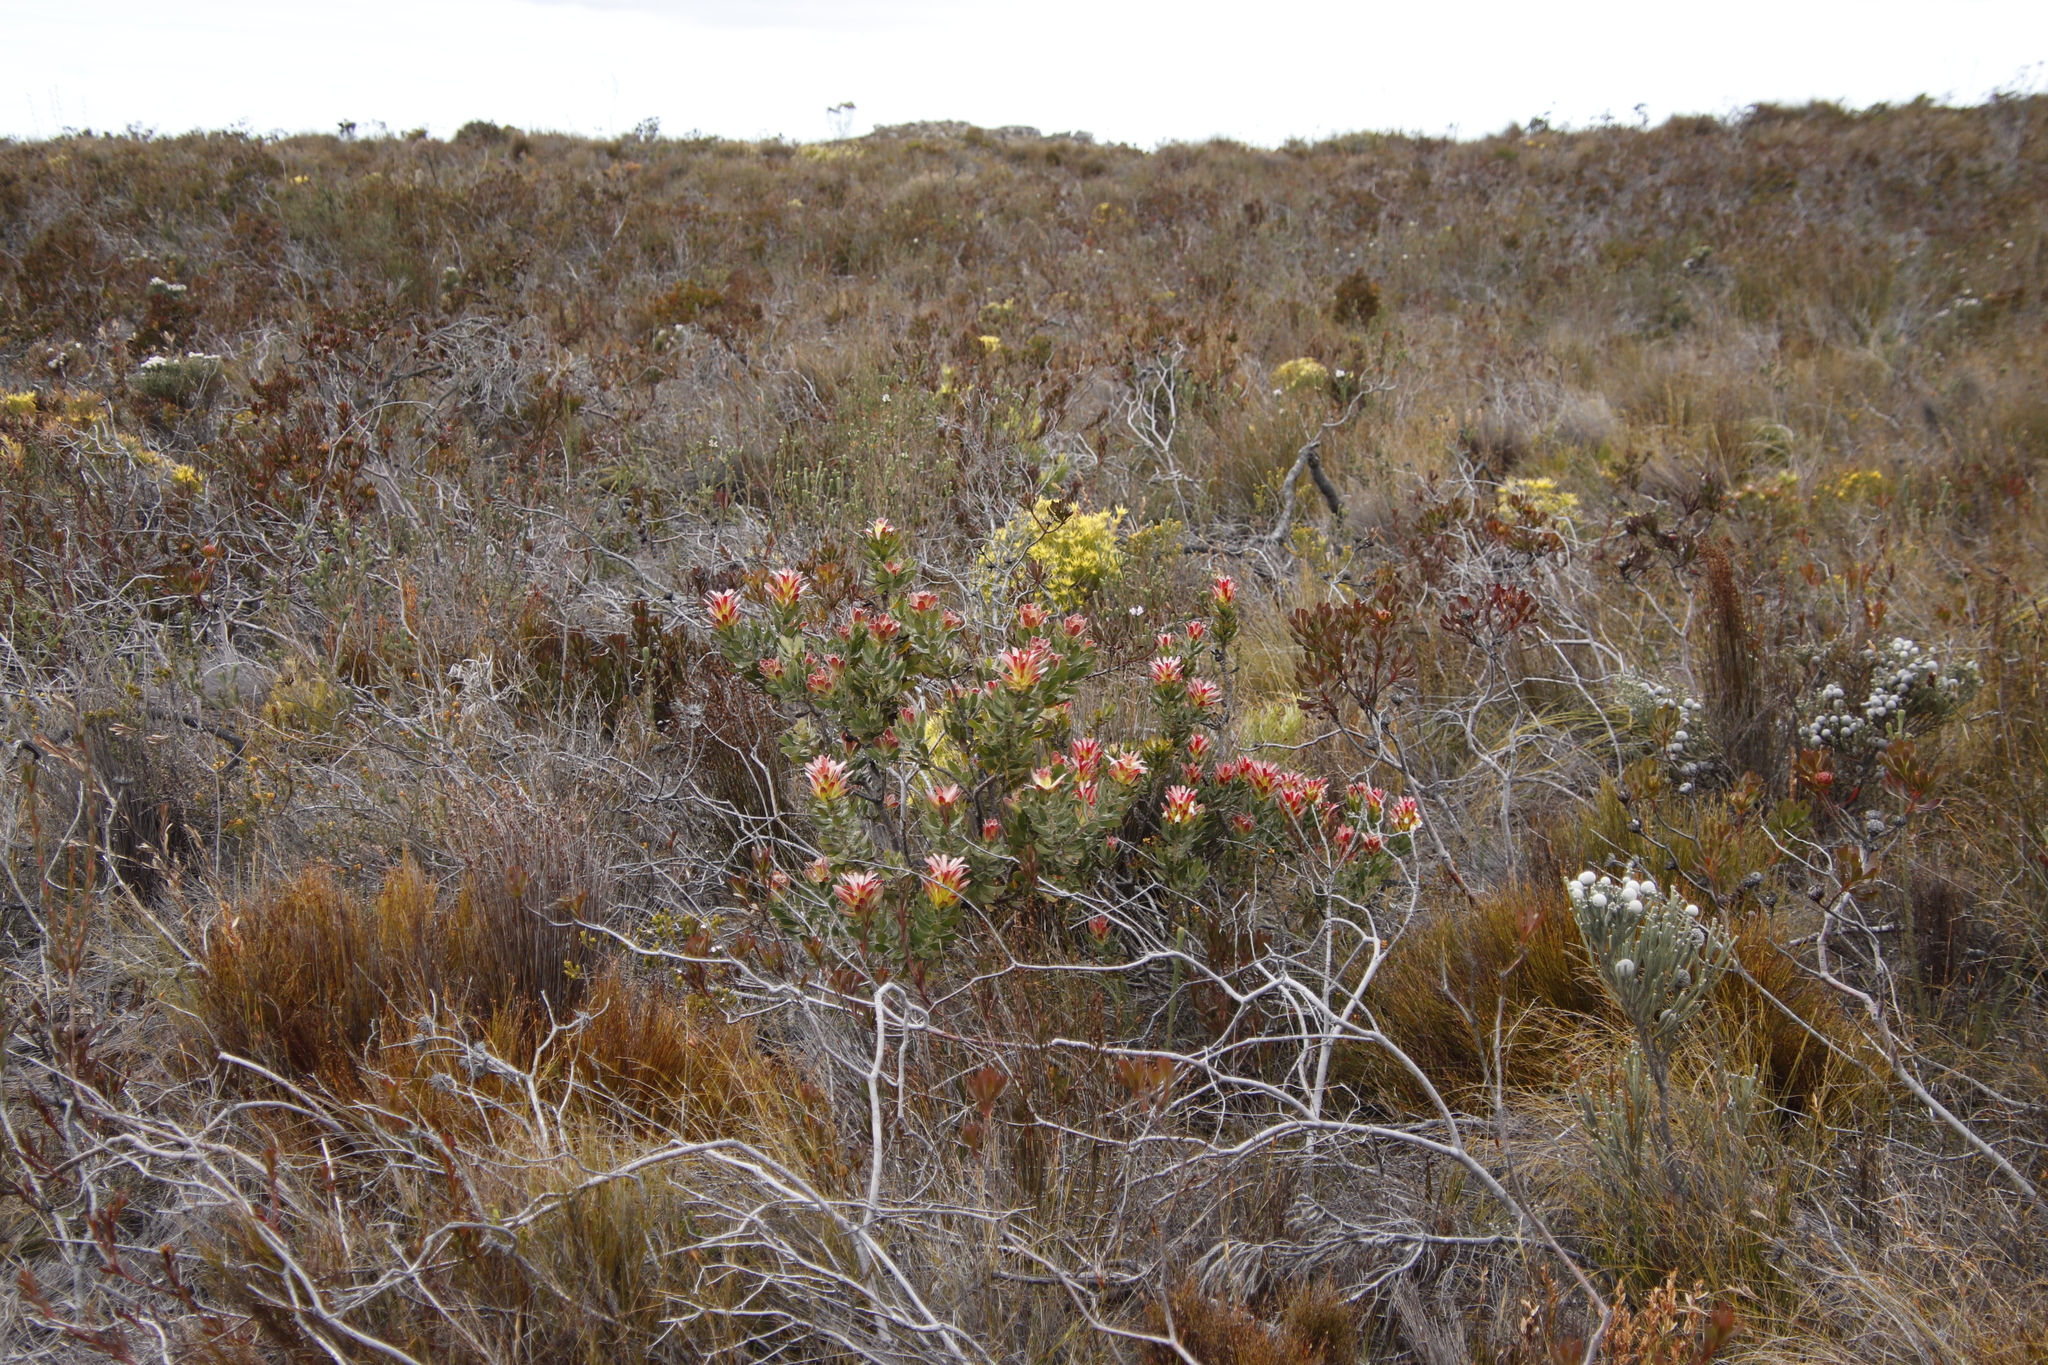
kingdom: Plantae
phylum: Tracheophyta
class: Magnoliopsida
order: Proteales
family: Proteaceae
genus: Mimetes
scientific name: Mimetes cucullatus
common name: Common pagoda
